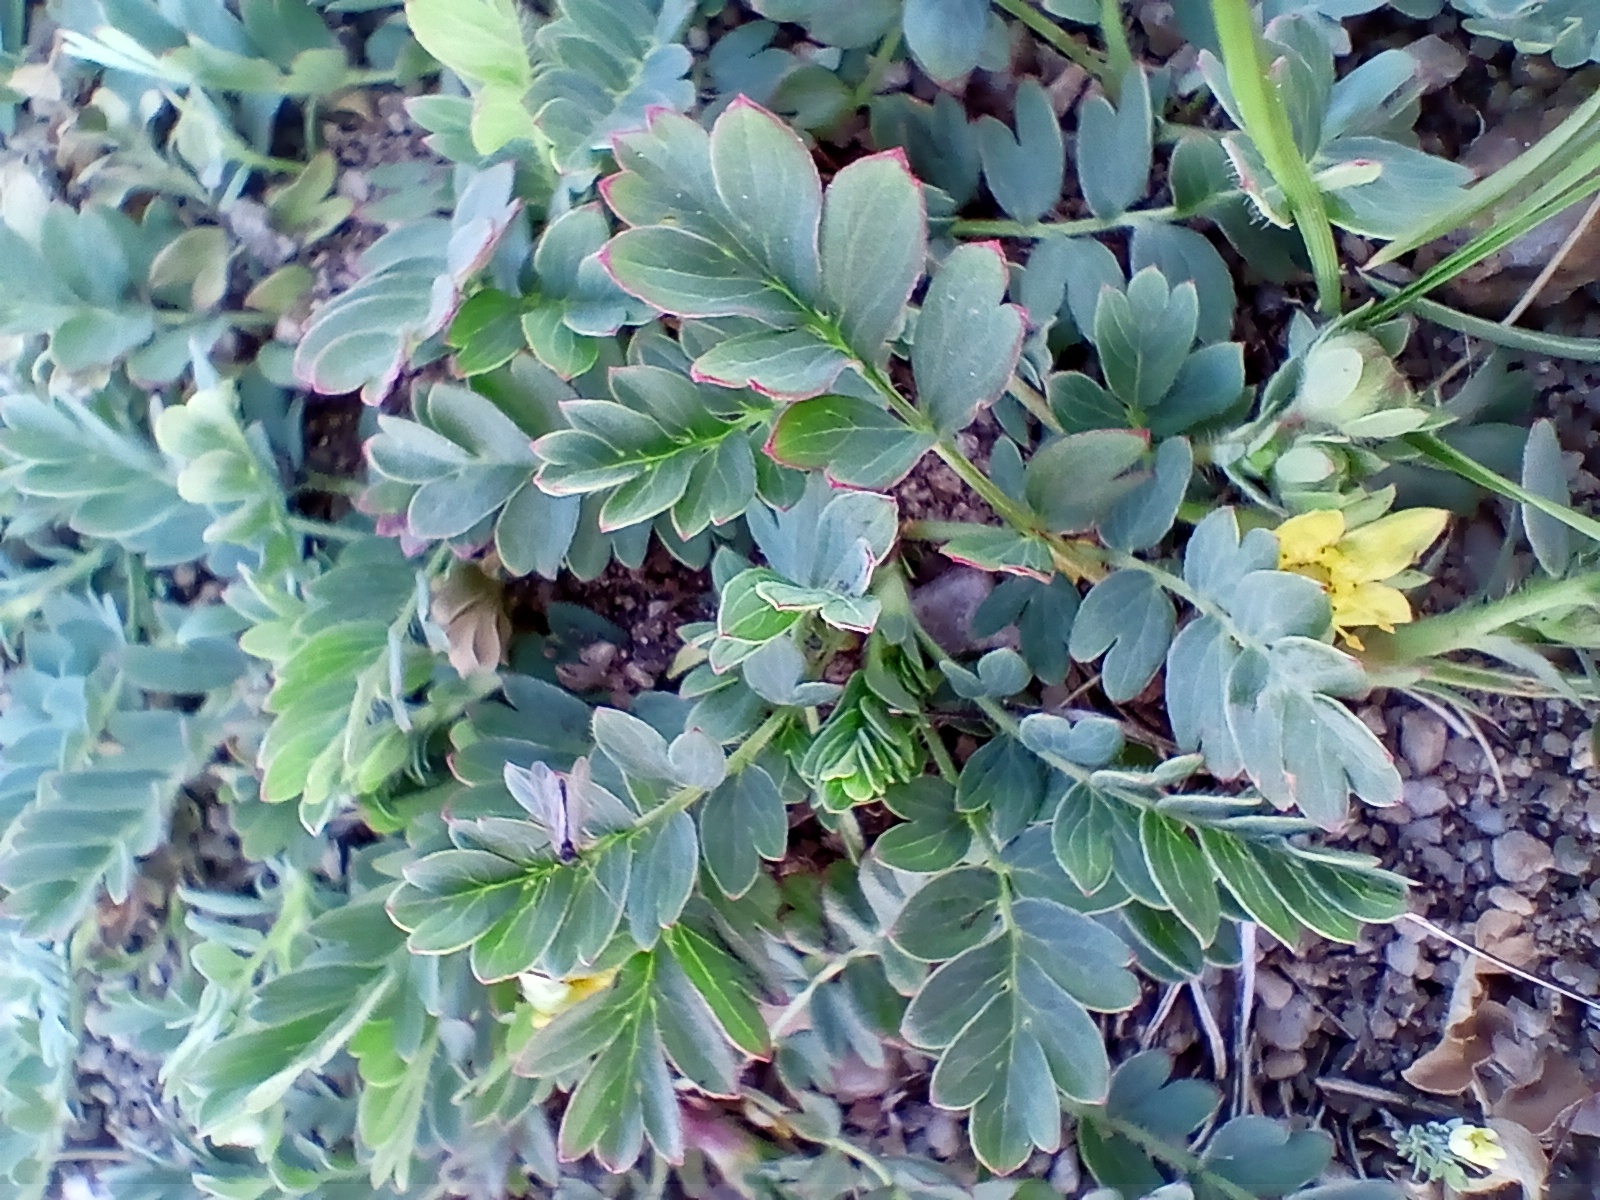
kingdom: Plantae
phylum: Tracheophyta
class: Magnoliopsida
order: Rosales
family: Rosaceae
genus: Sibbaldianthe
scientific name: Sibbaldianthe bifurca
